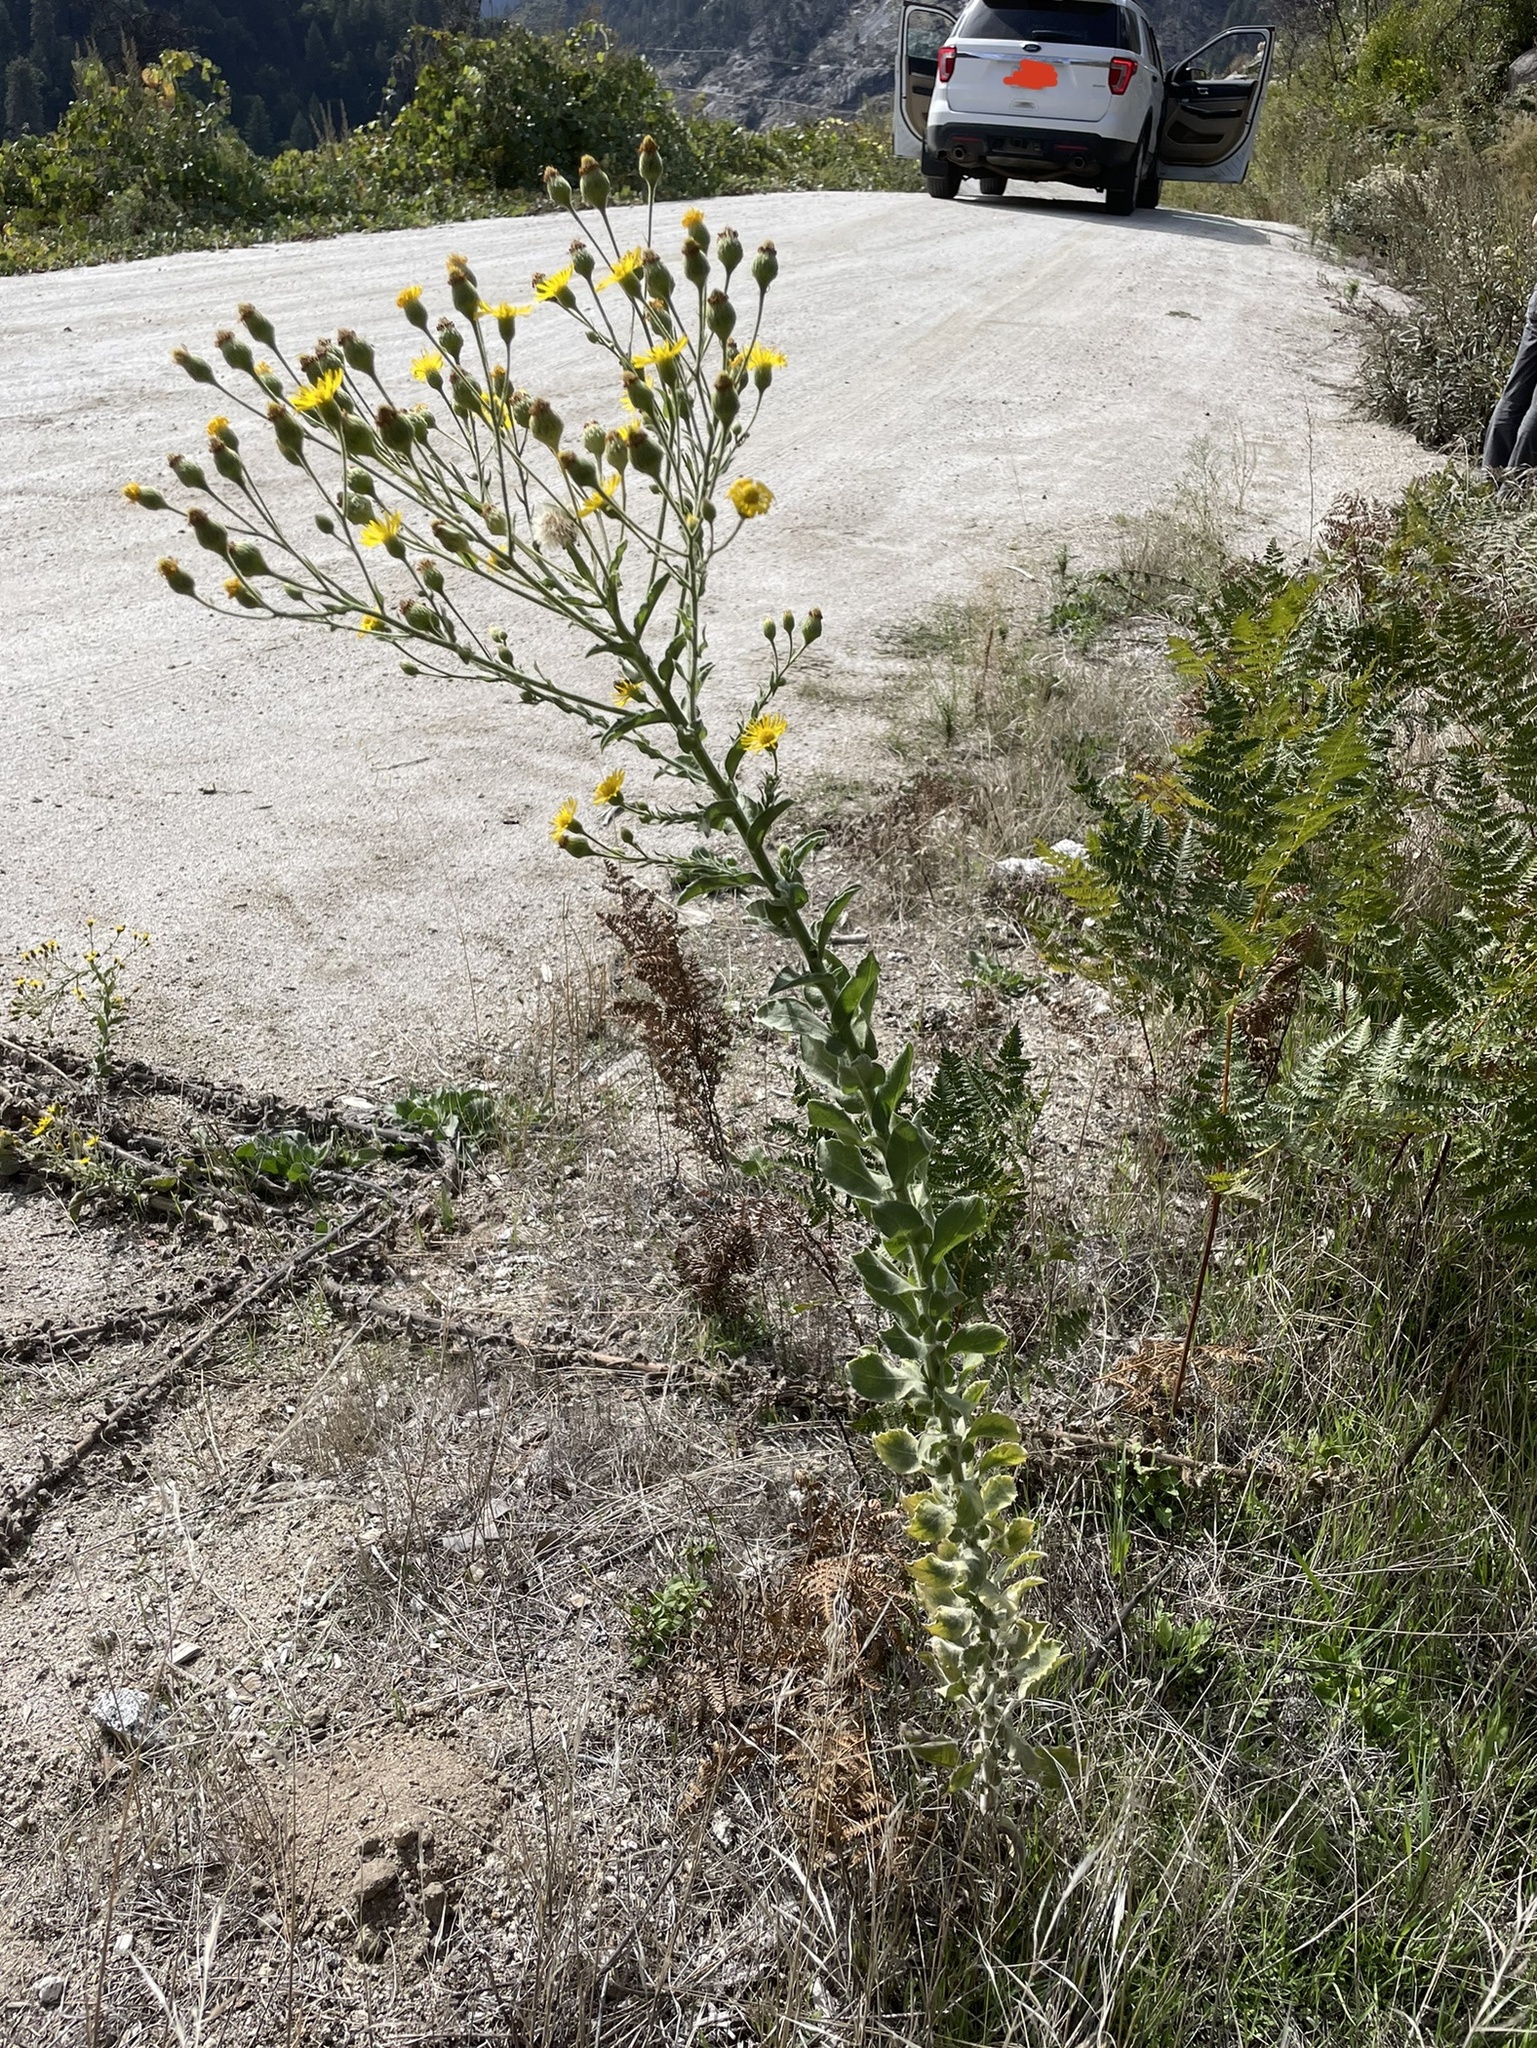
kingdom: Plantae
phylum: Tracheophyta
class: Magnoliopsida
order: Asterales
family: Asteraceae
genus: Heterotheca
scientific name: Heterotheca grandiflora
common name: Telegraphweed
